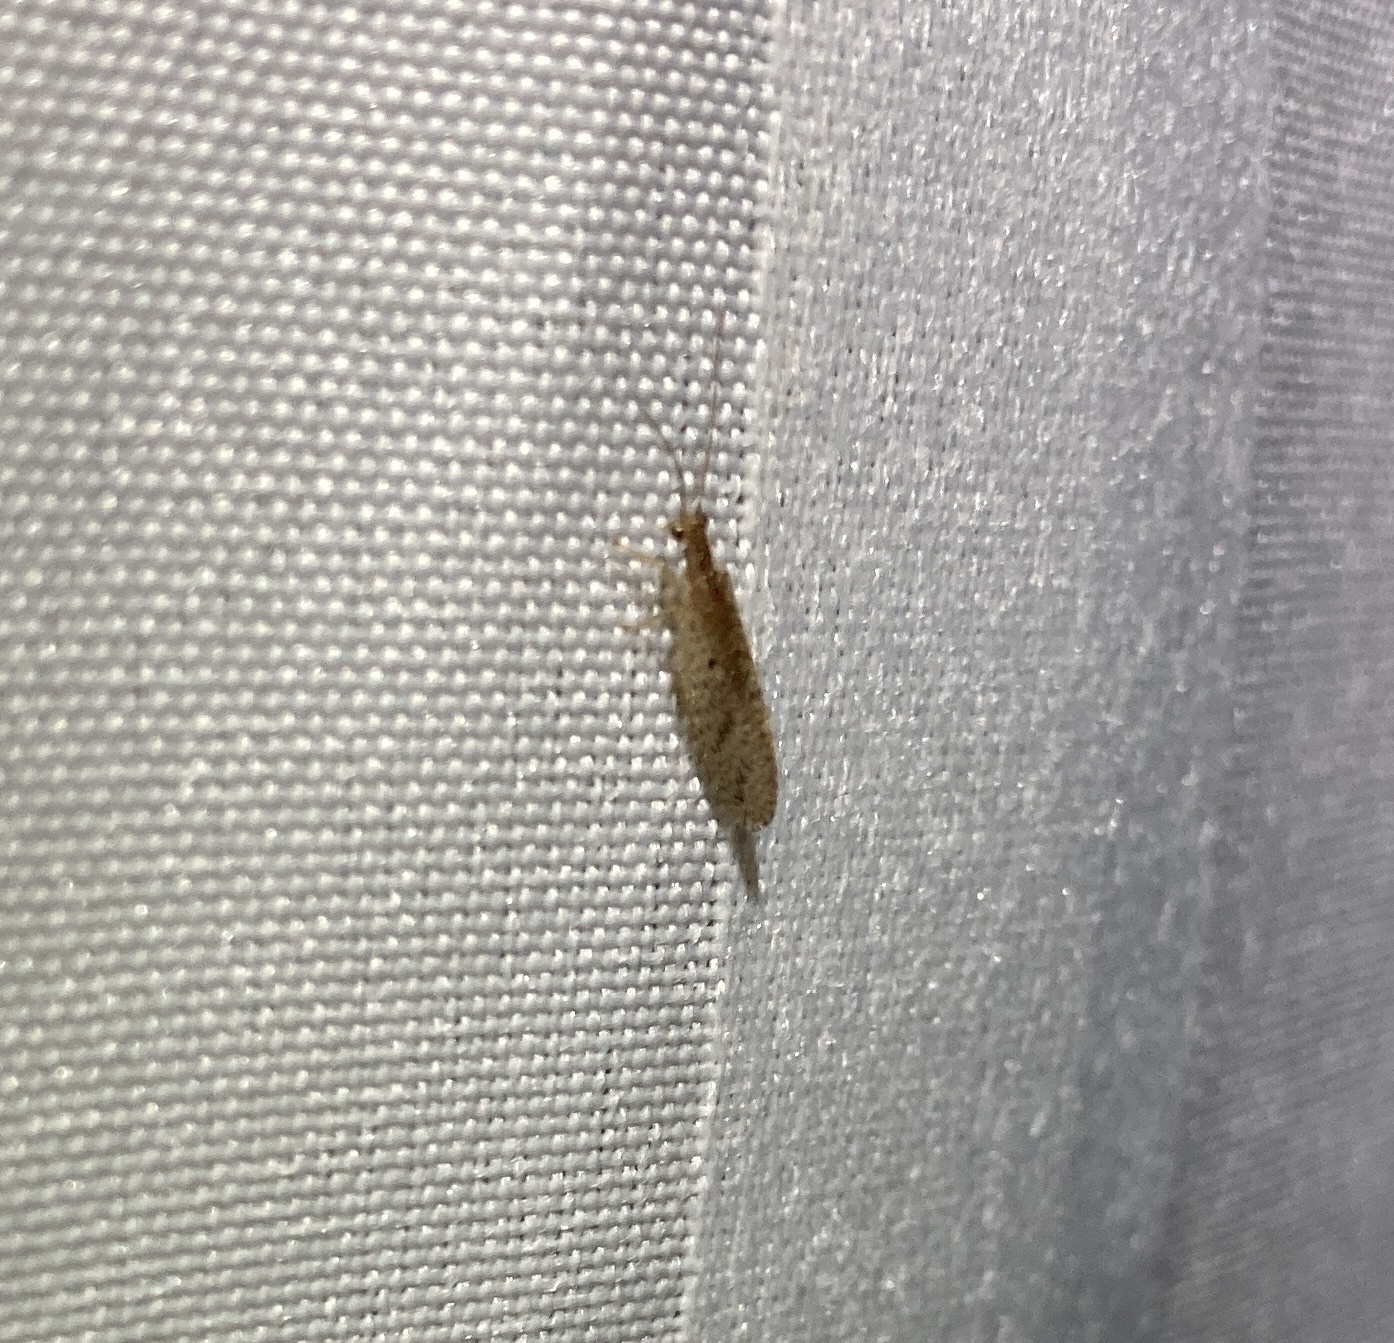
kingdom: Animalia
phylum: Arthropoda
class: Insecta
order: Neuroptera
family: Hemerobiidae
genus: Micromus
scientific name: Micromus tasmaniae
